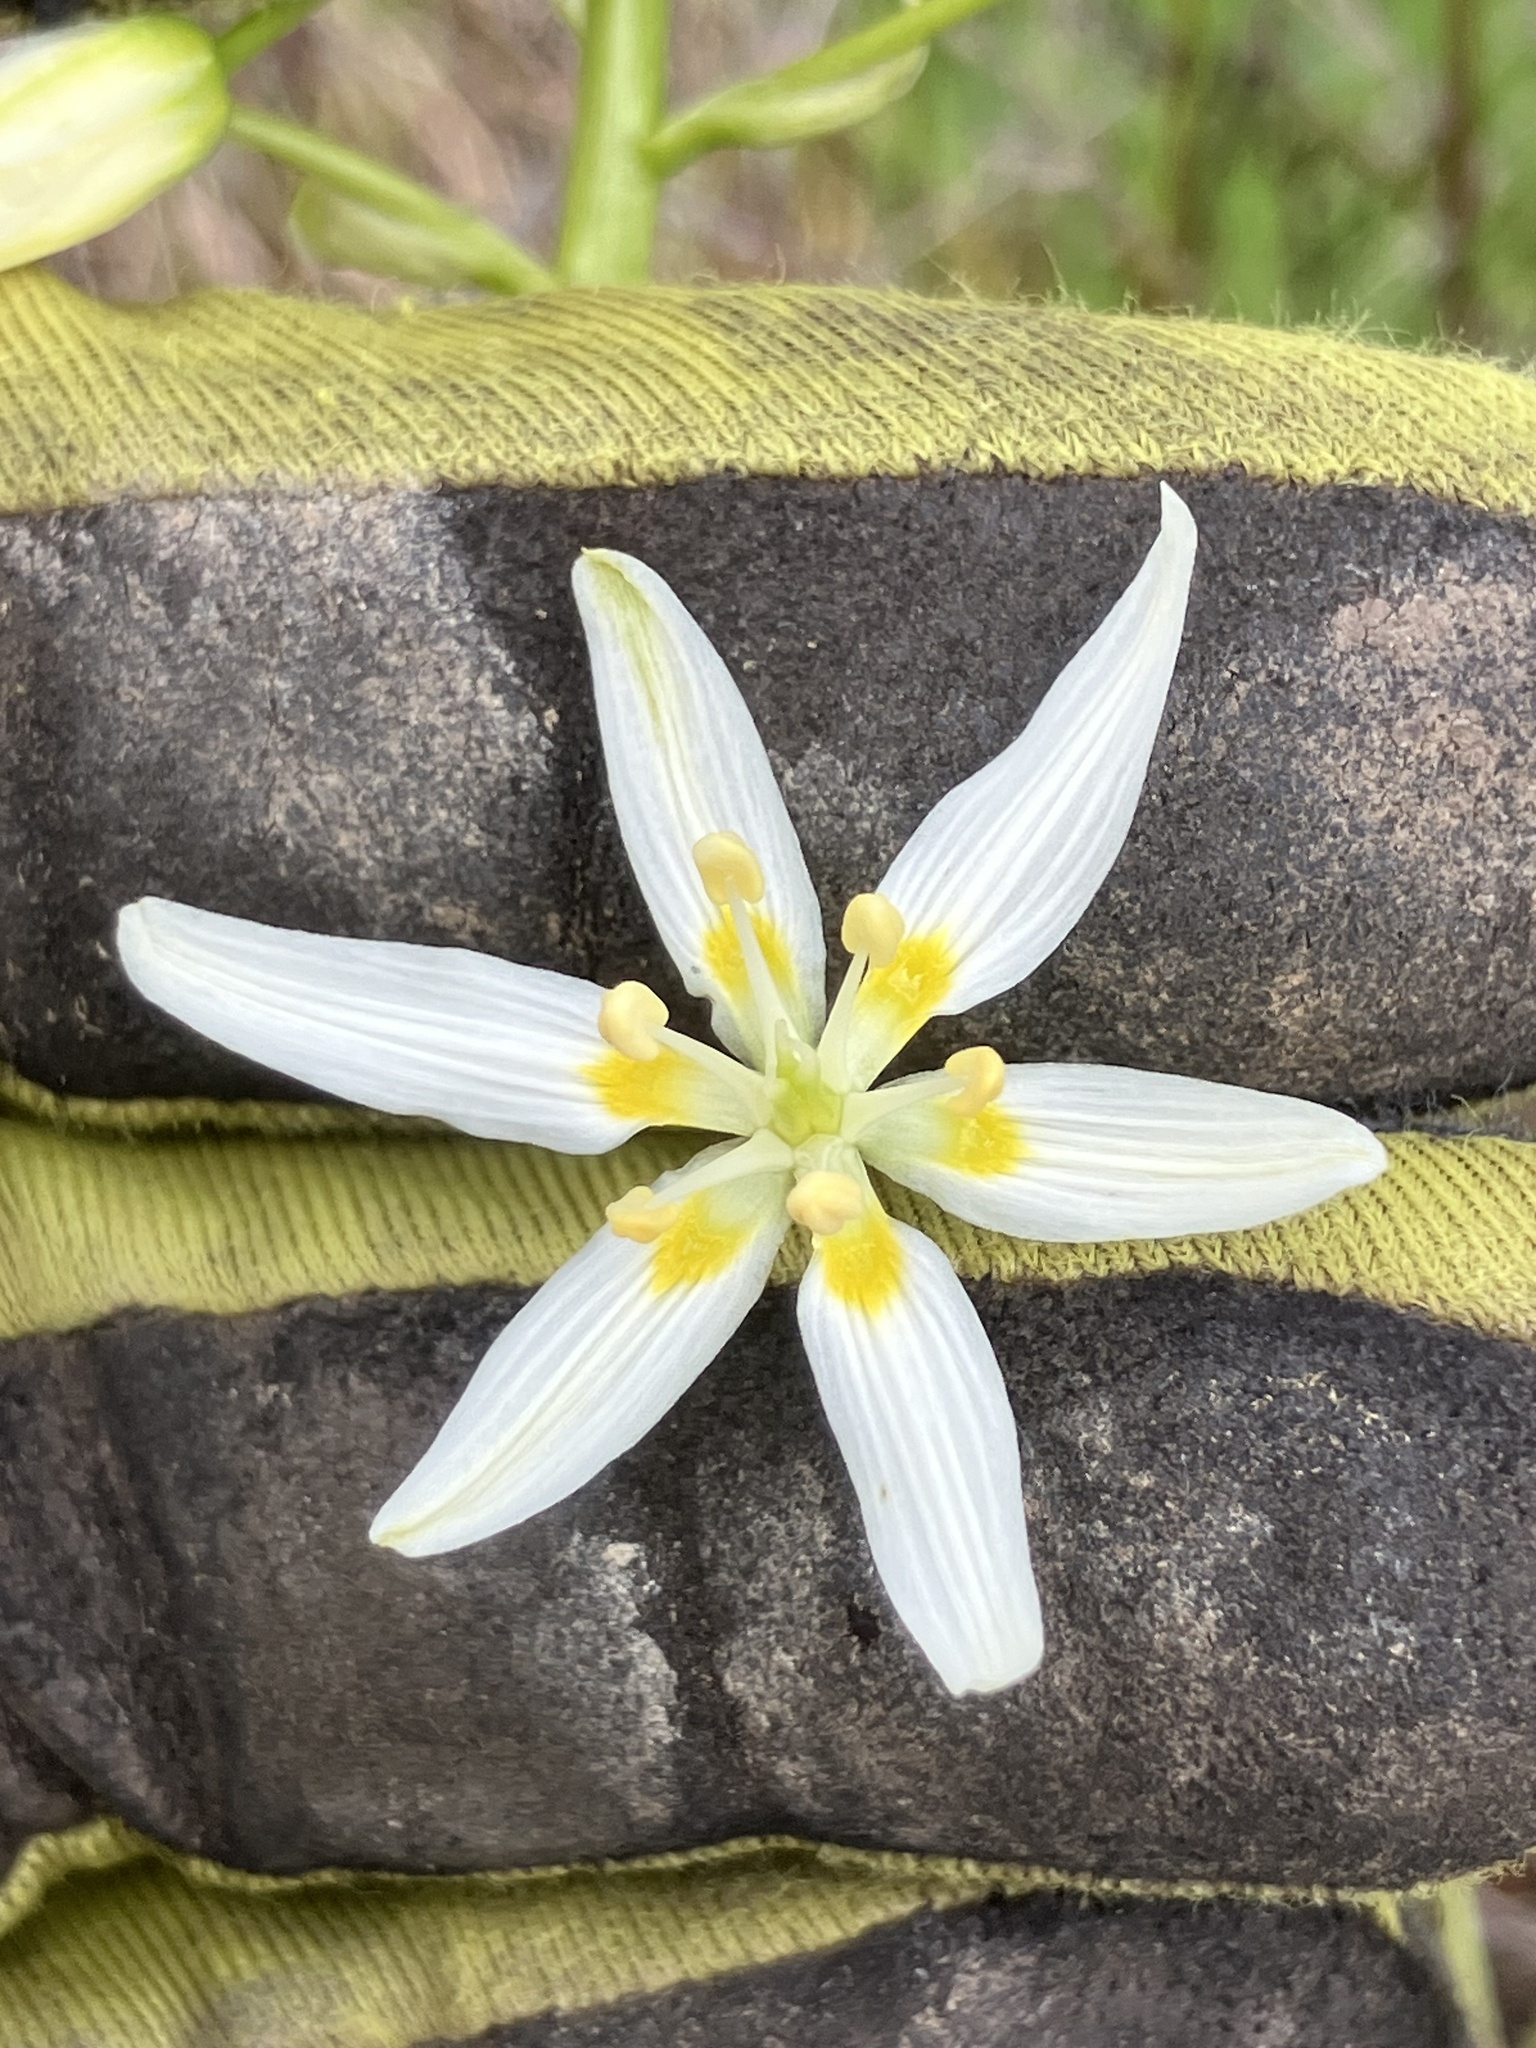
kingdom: Plantae
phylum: Tracheophyta
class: Liliopsida
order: Liliales
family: Melanthiaceae
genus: Toxicoscordion
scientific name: Toxicoscordion fremontii
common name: Fremont's death camas
